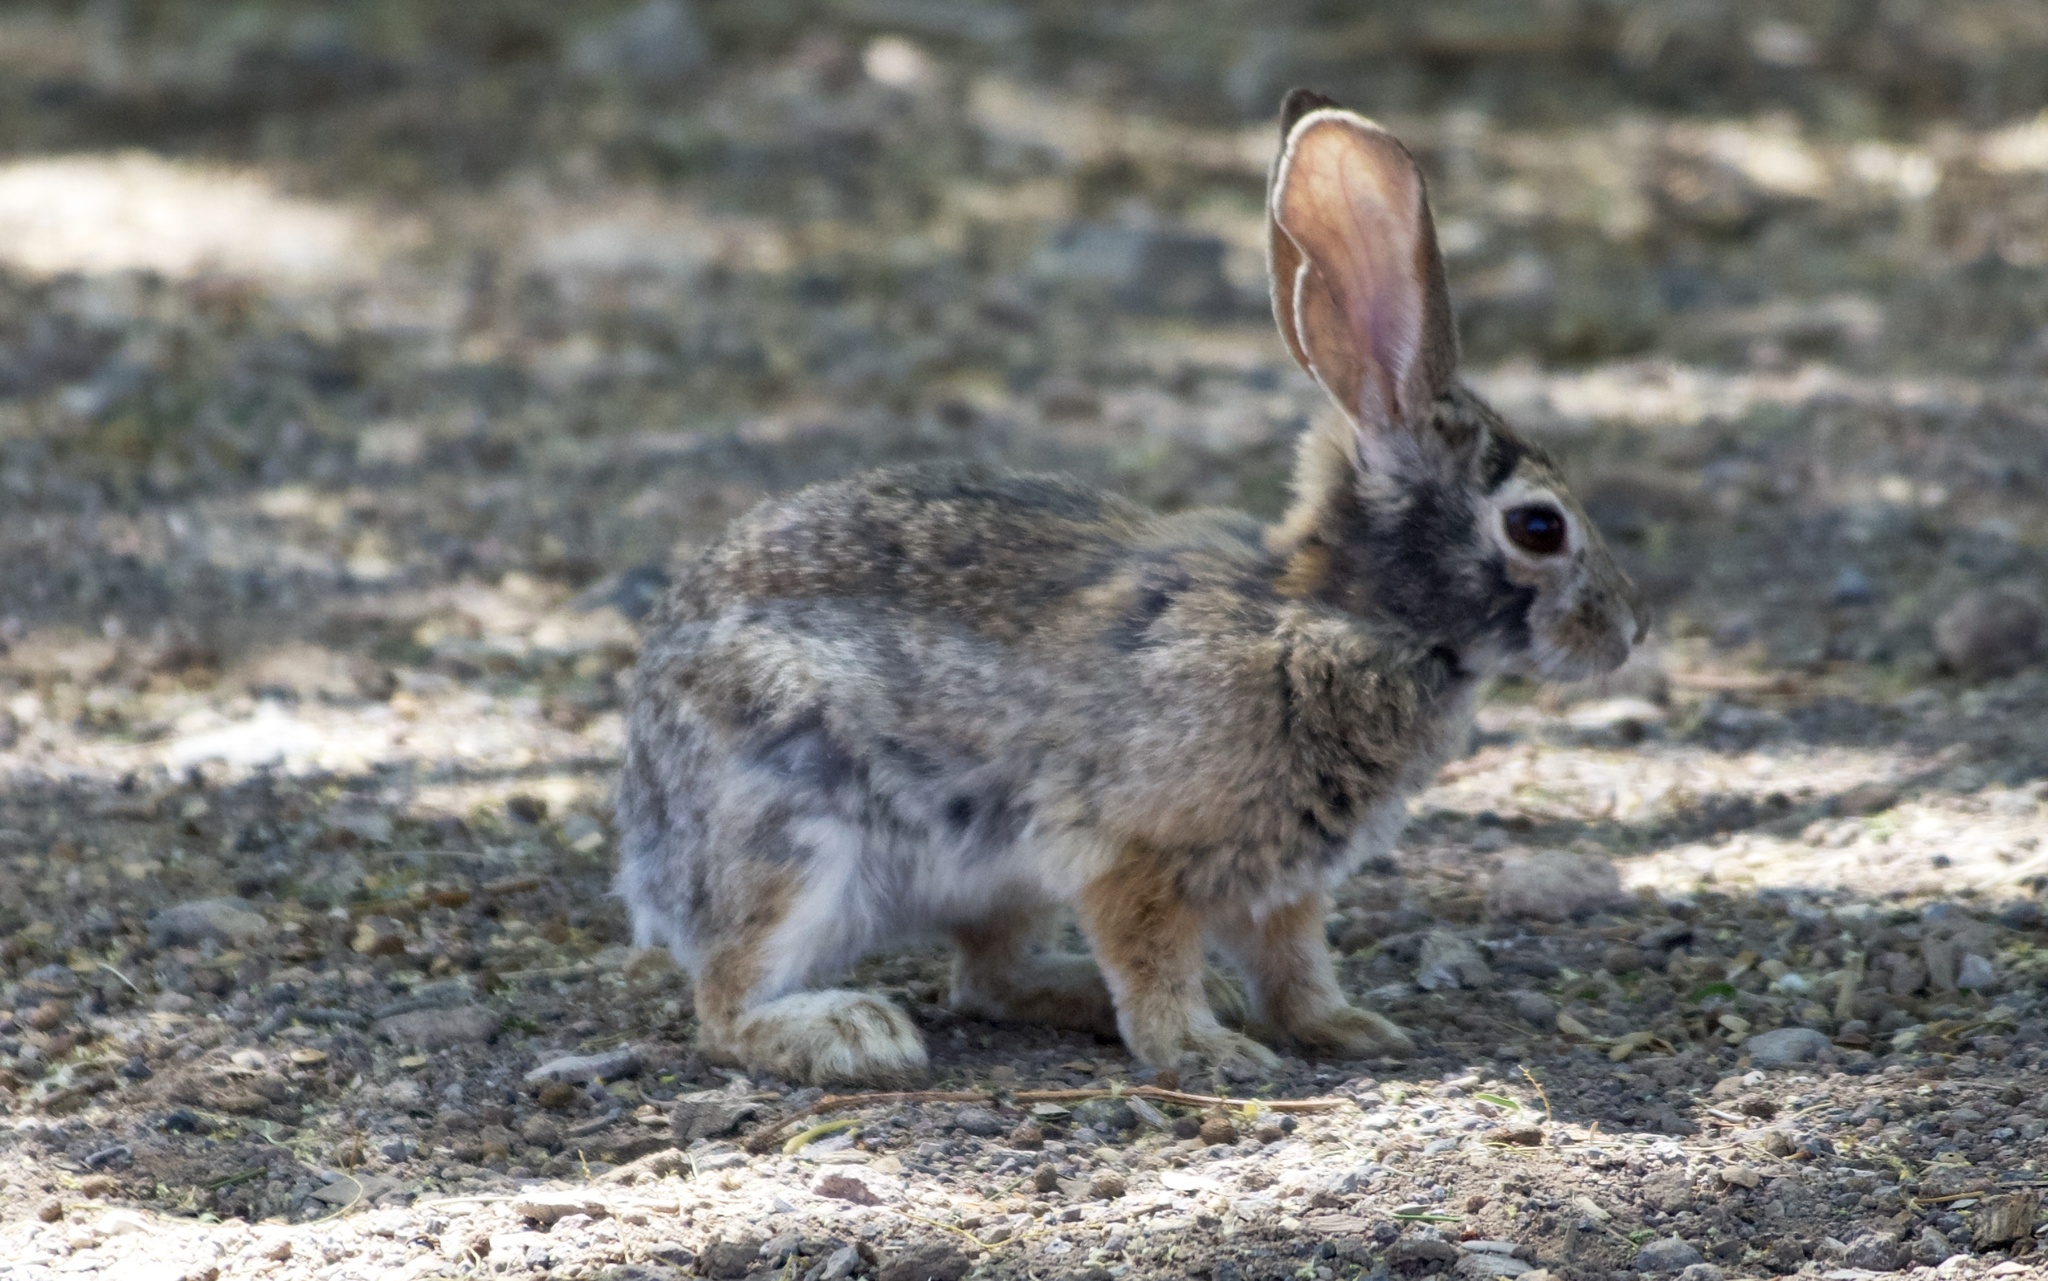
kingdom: Animalia
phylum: Chordata
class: Mammalia
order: Lagomorpha
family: Leporidae
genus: Sylvilagus
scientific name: Sylvilagus audubonii
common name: Desert cottontail
